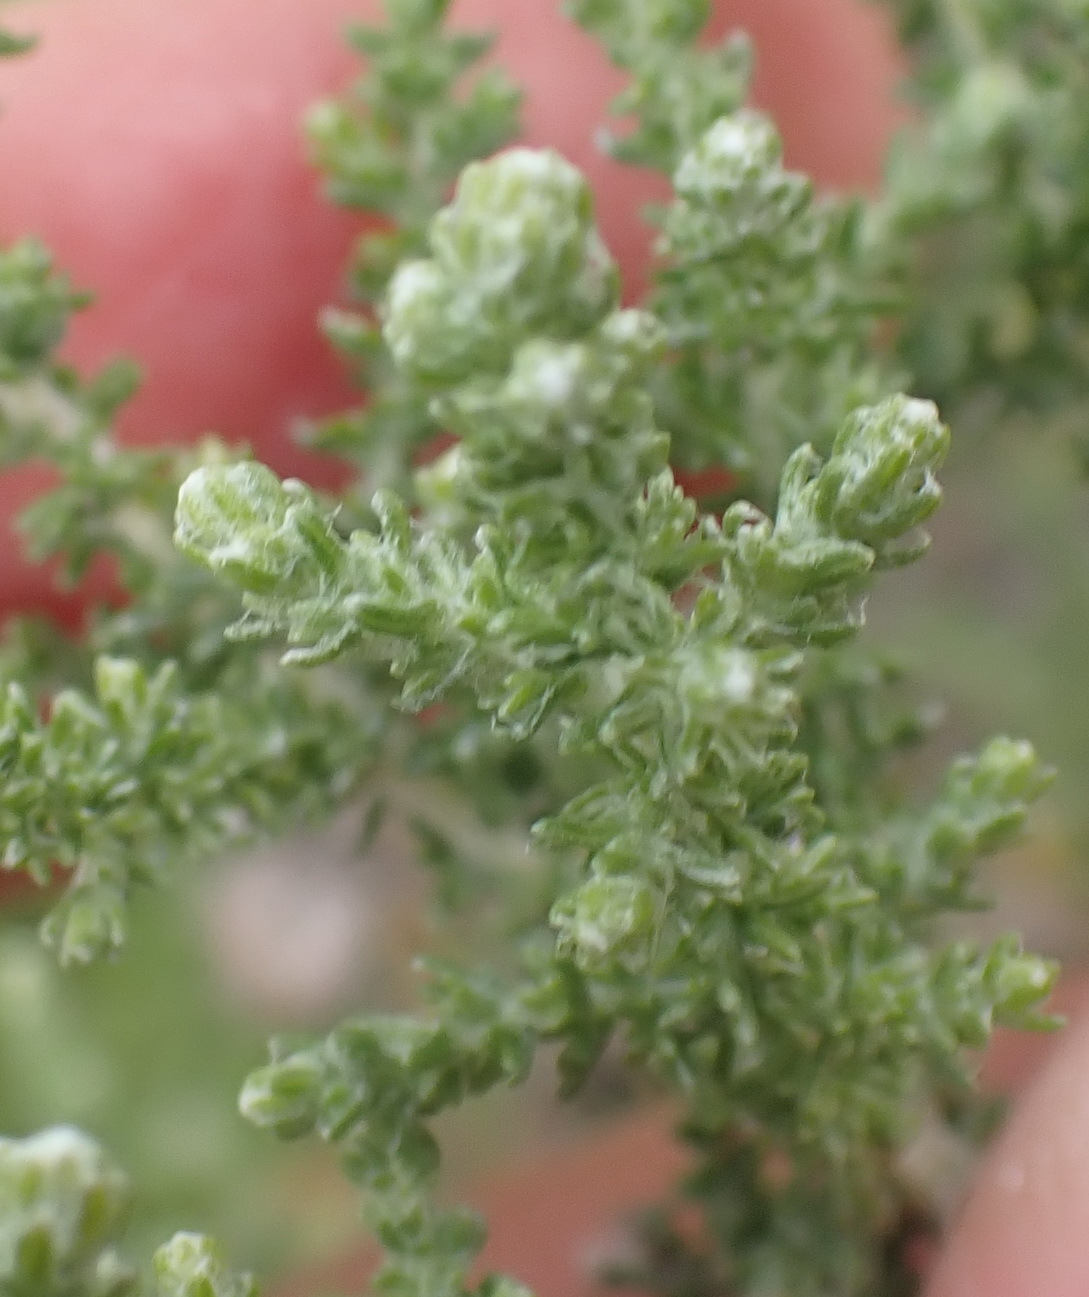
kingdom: Plantae
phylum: Tracheophyta
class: Magnoliopsida
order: Asterales
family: Asteraceae
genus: Seriphium
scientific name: Seriphium plumosum
